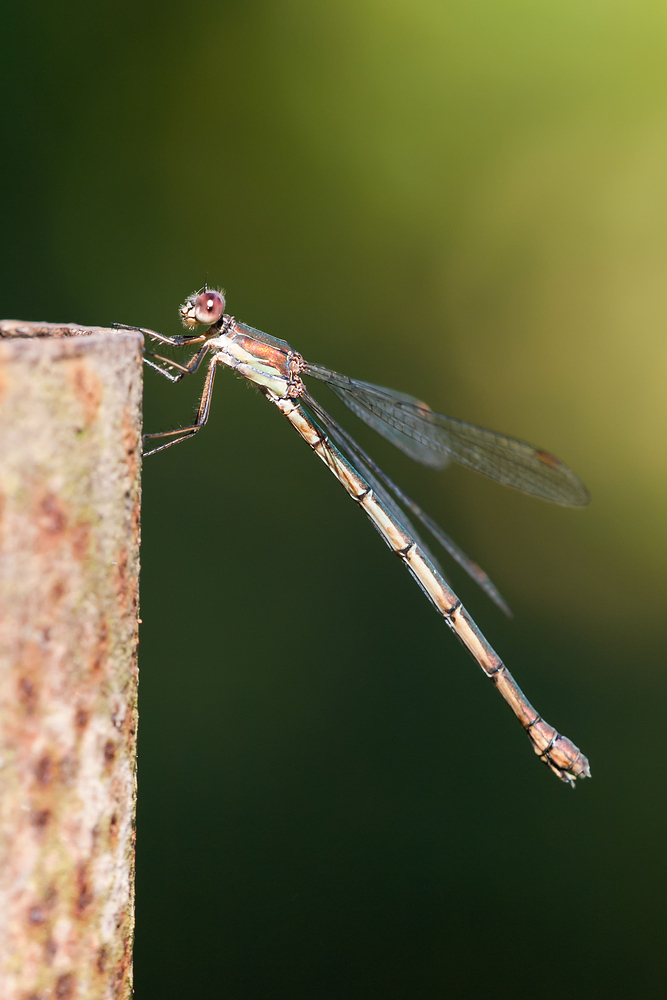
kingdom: Animalia
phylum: Arthropoda
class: Insecta
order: Odonata
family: Lestidae
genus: Chalcolestes
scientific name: Chalcolestes viridis
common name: Green emerald damselfly
